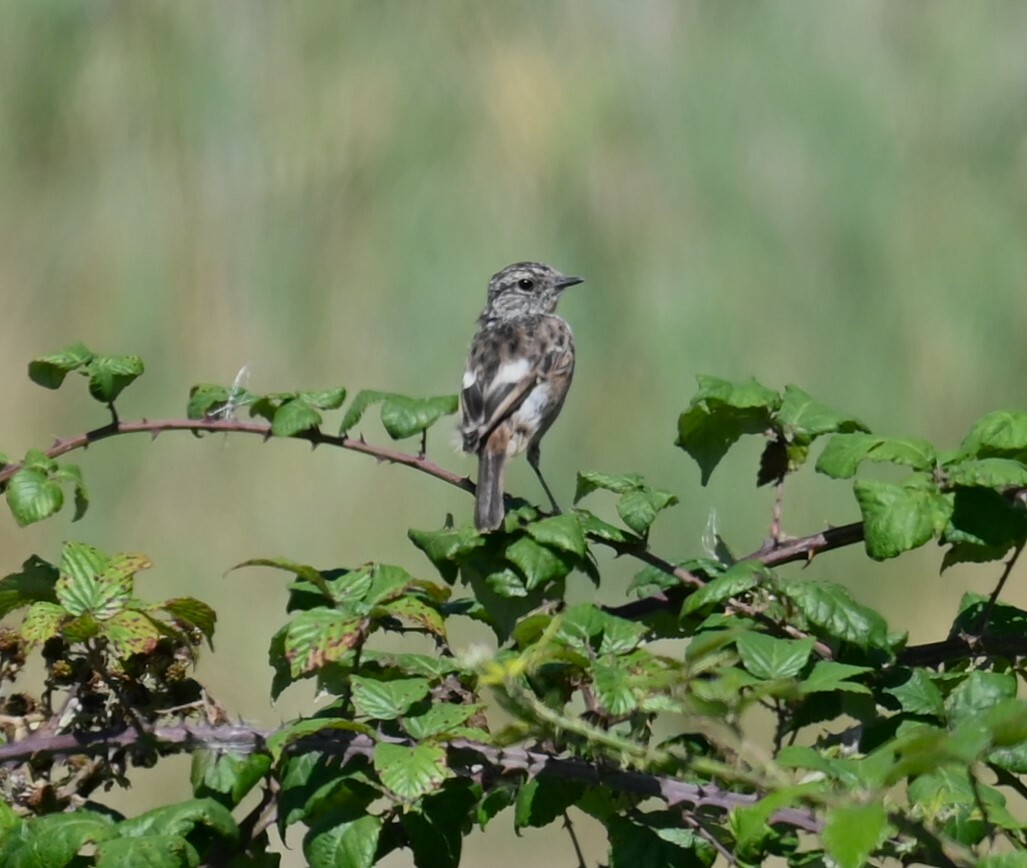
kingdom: Animalia
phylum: Chordata
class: Aves
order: Passeriformes
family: Muscicapidae
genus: Saxicola
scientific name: Saxicola rubicola
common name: European stonechat
